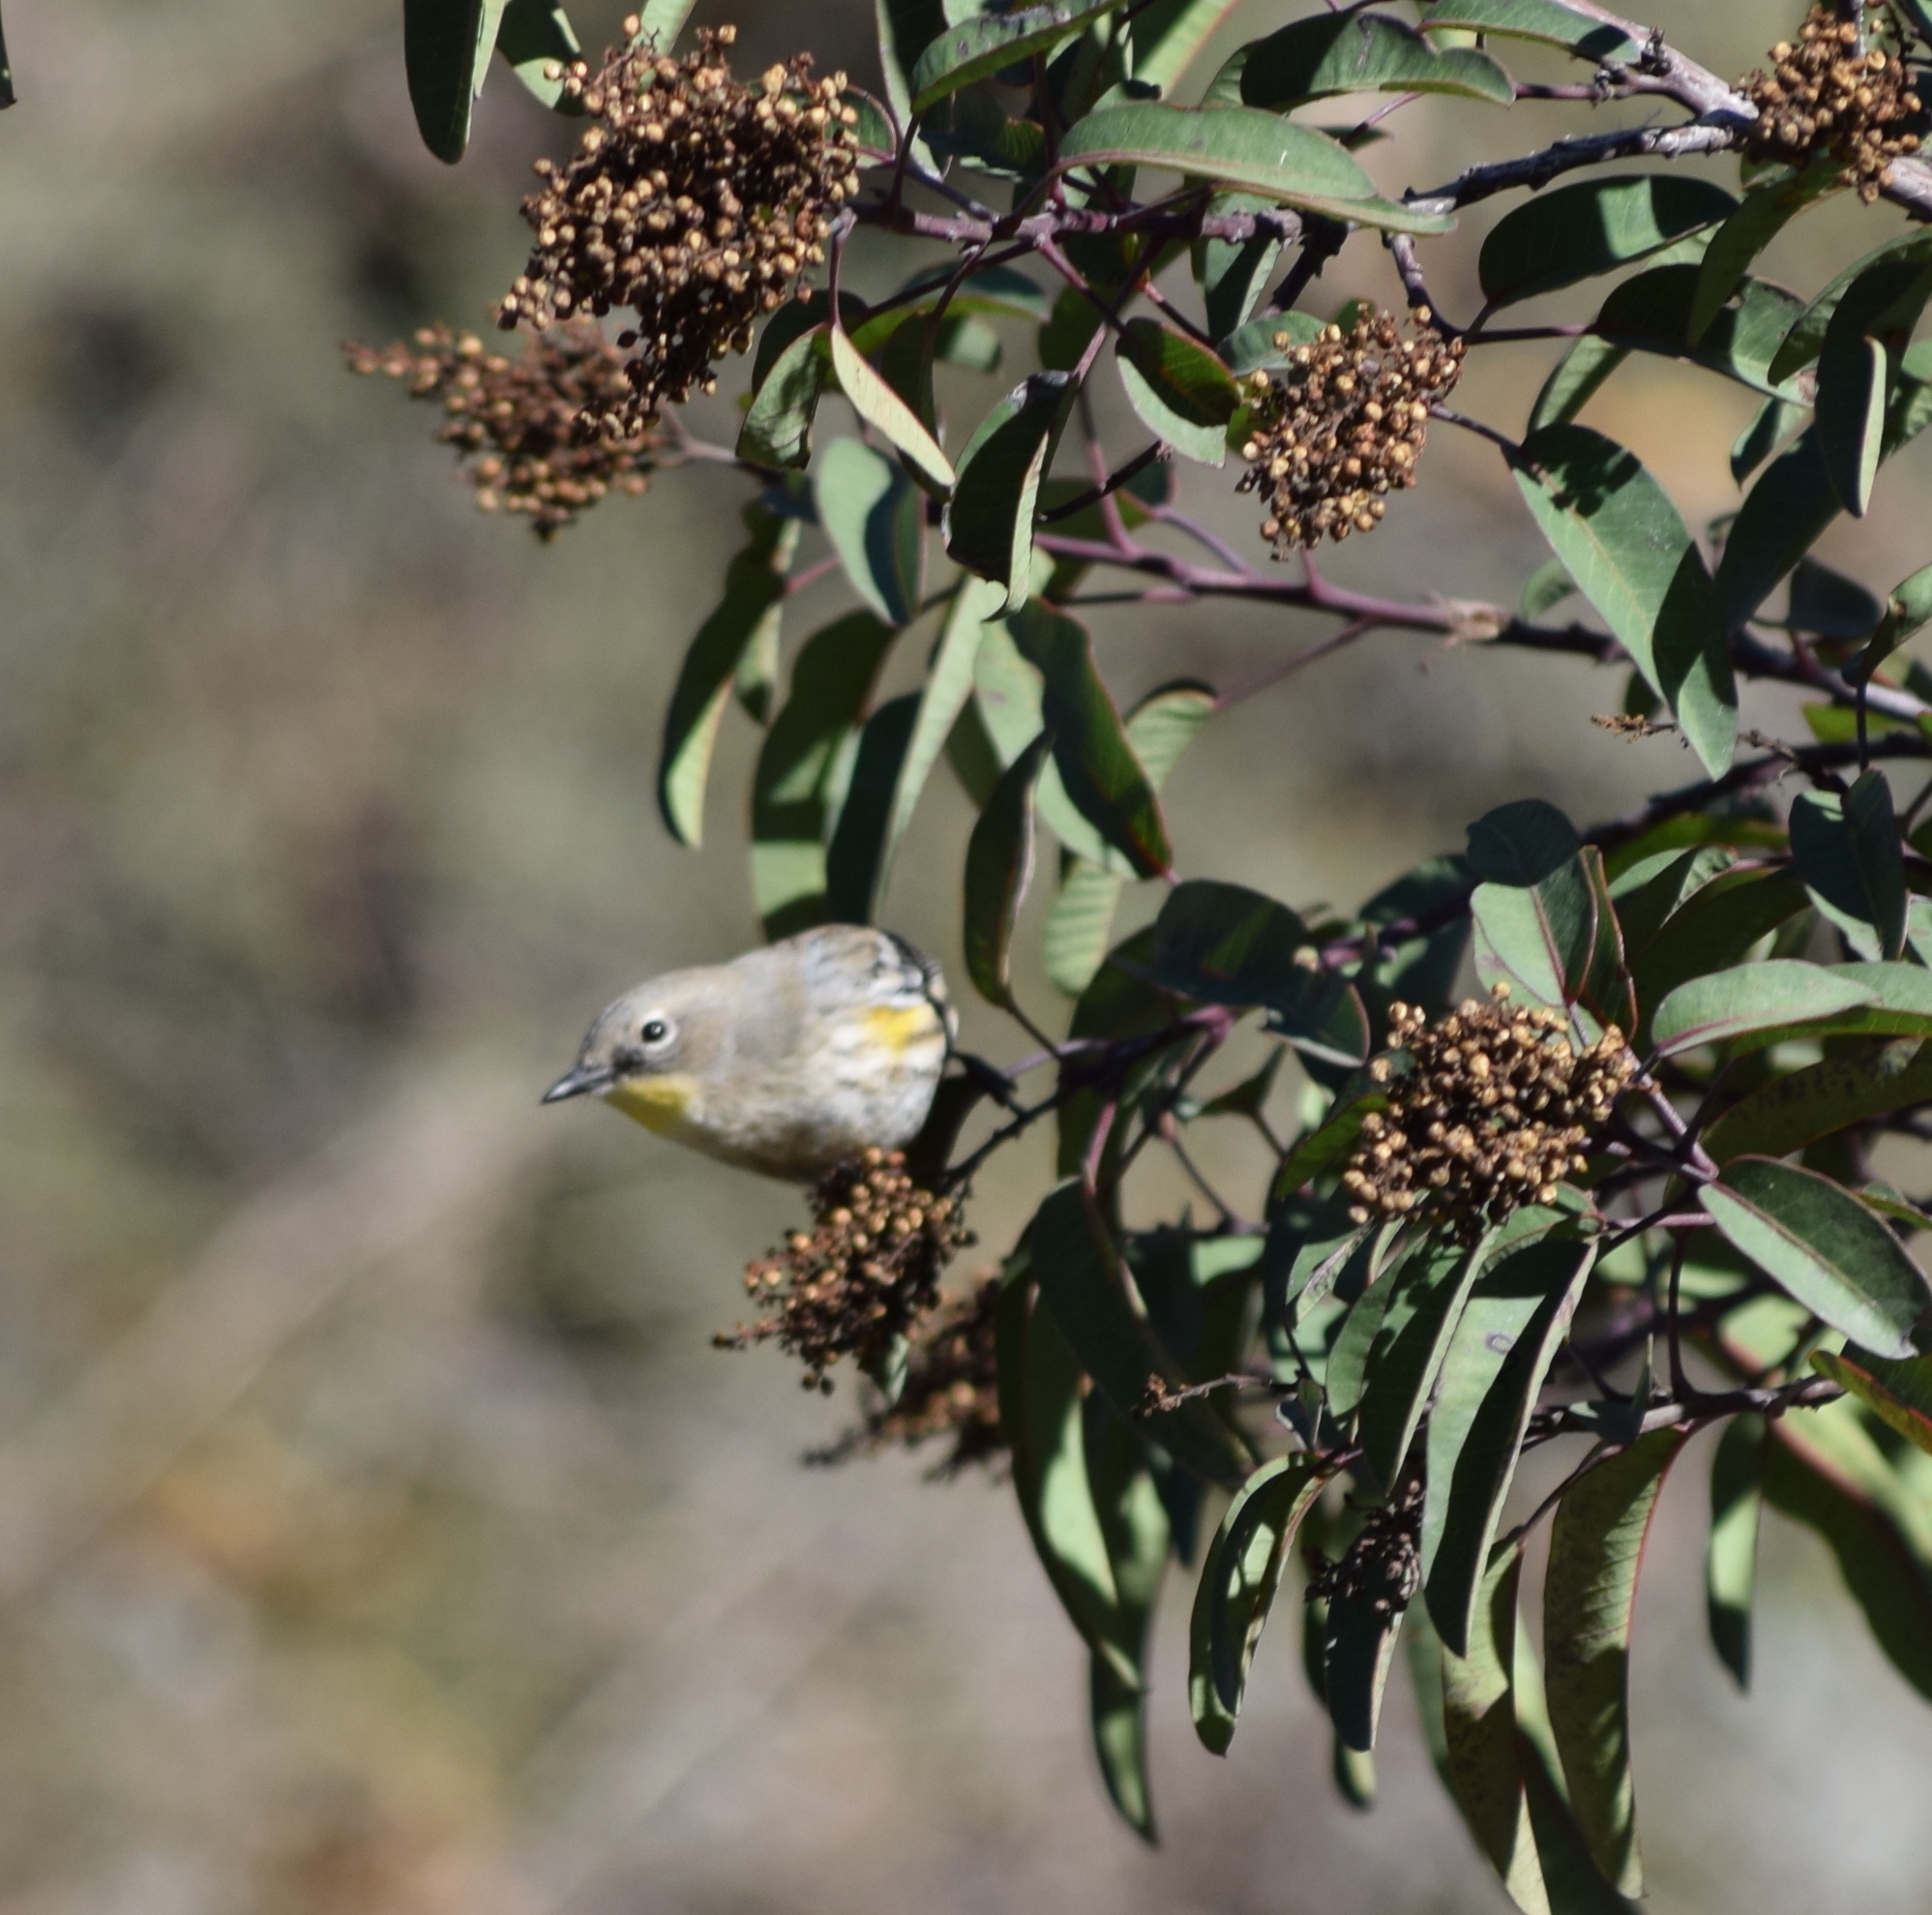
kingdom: Animalia
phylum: Chordata
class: Aves
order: Passeriformes
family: Parulidae
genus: Setophaga
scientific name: Setophaga coronata
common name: Myrtle warbler
